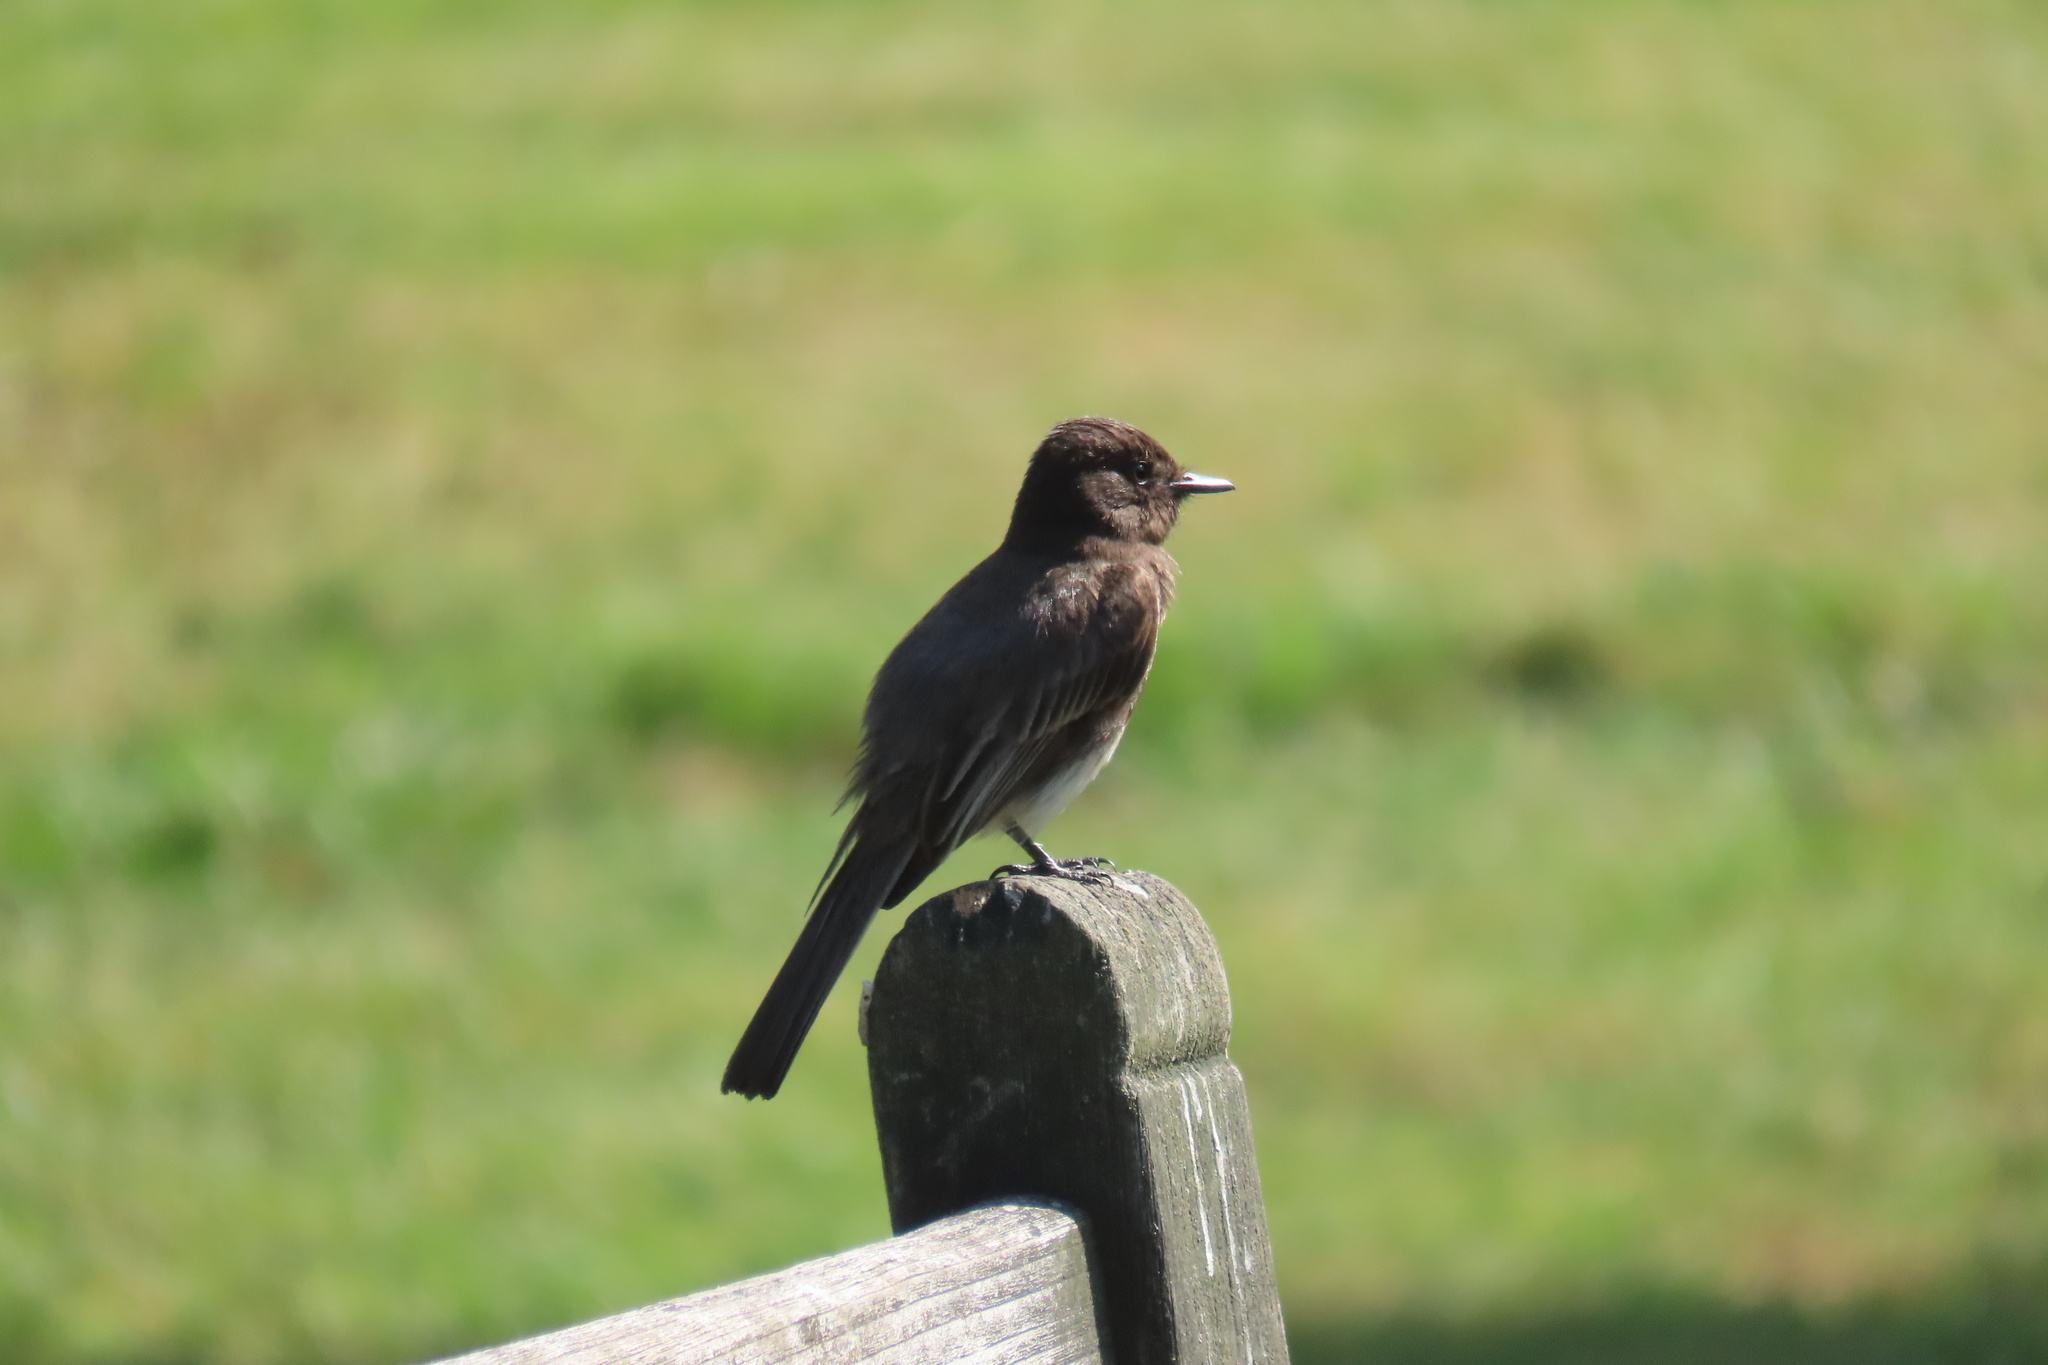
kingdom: Animalia
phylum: Chordata
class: Aves
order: Passeriformes
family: Tyrannidae
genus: Sayornis
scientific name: Sayornis nigricans
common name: Black phoebe
